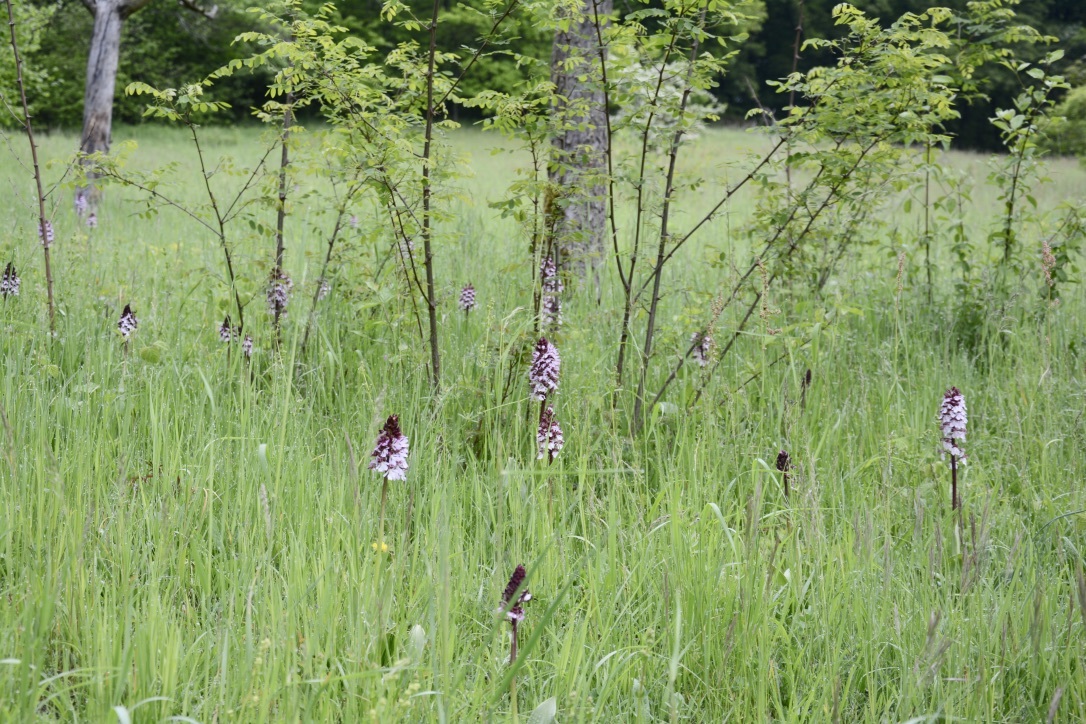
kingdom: Plantae
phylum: Tracheophyta
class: Liliopsida
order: Asparagales
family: Orchidaceae
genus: Orchis
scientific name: Orchis purpurea
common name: Lady orchid
